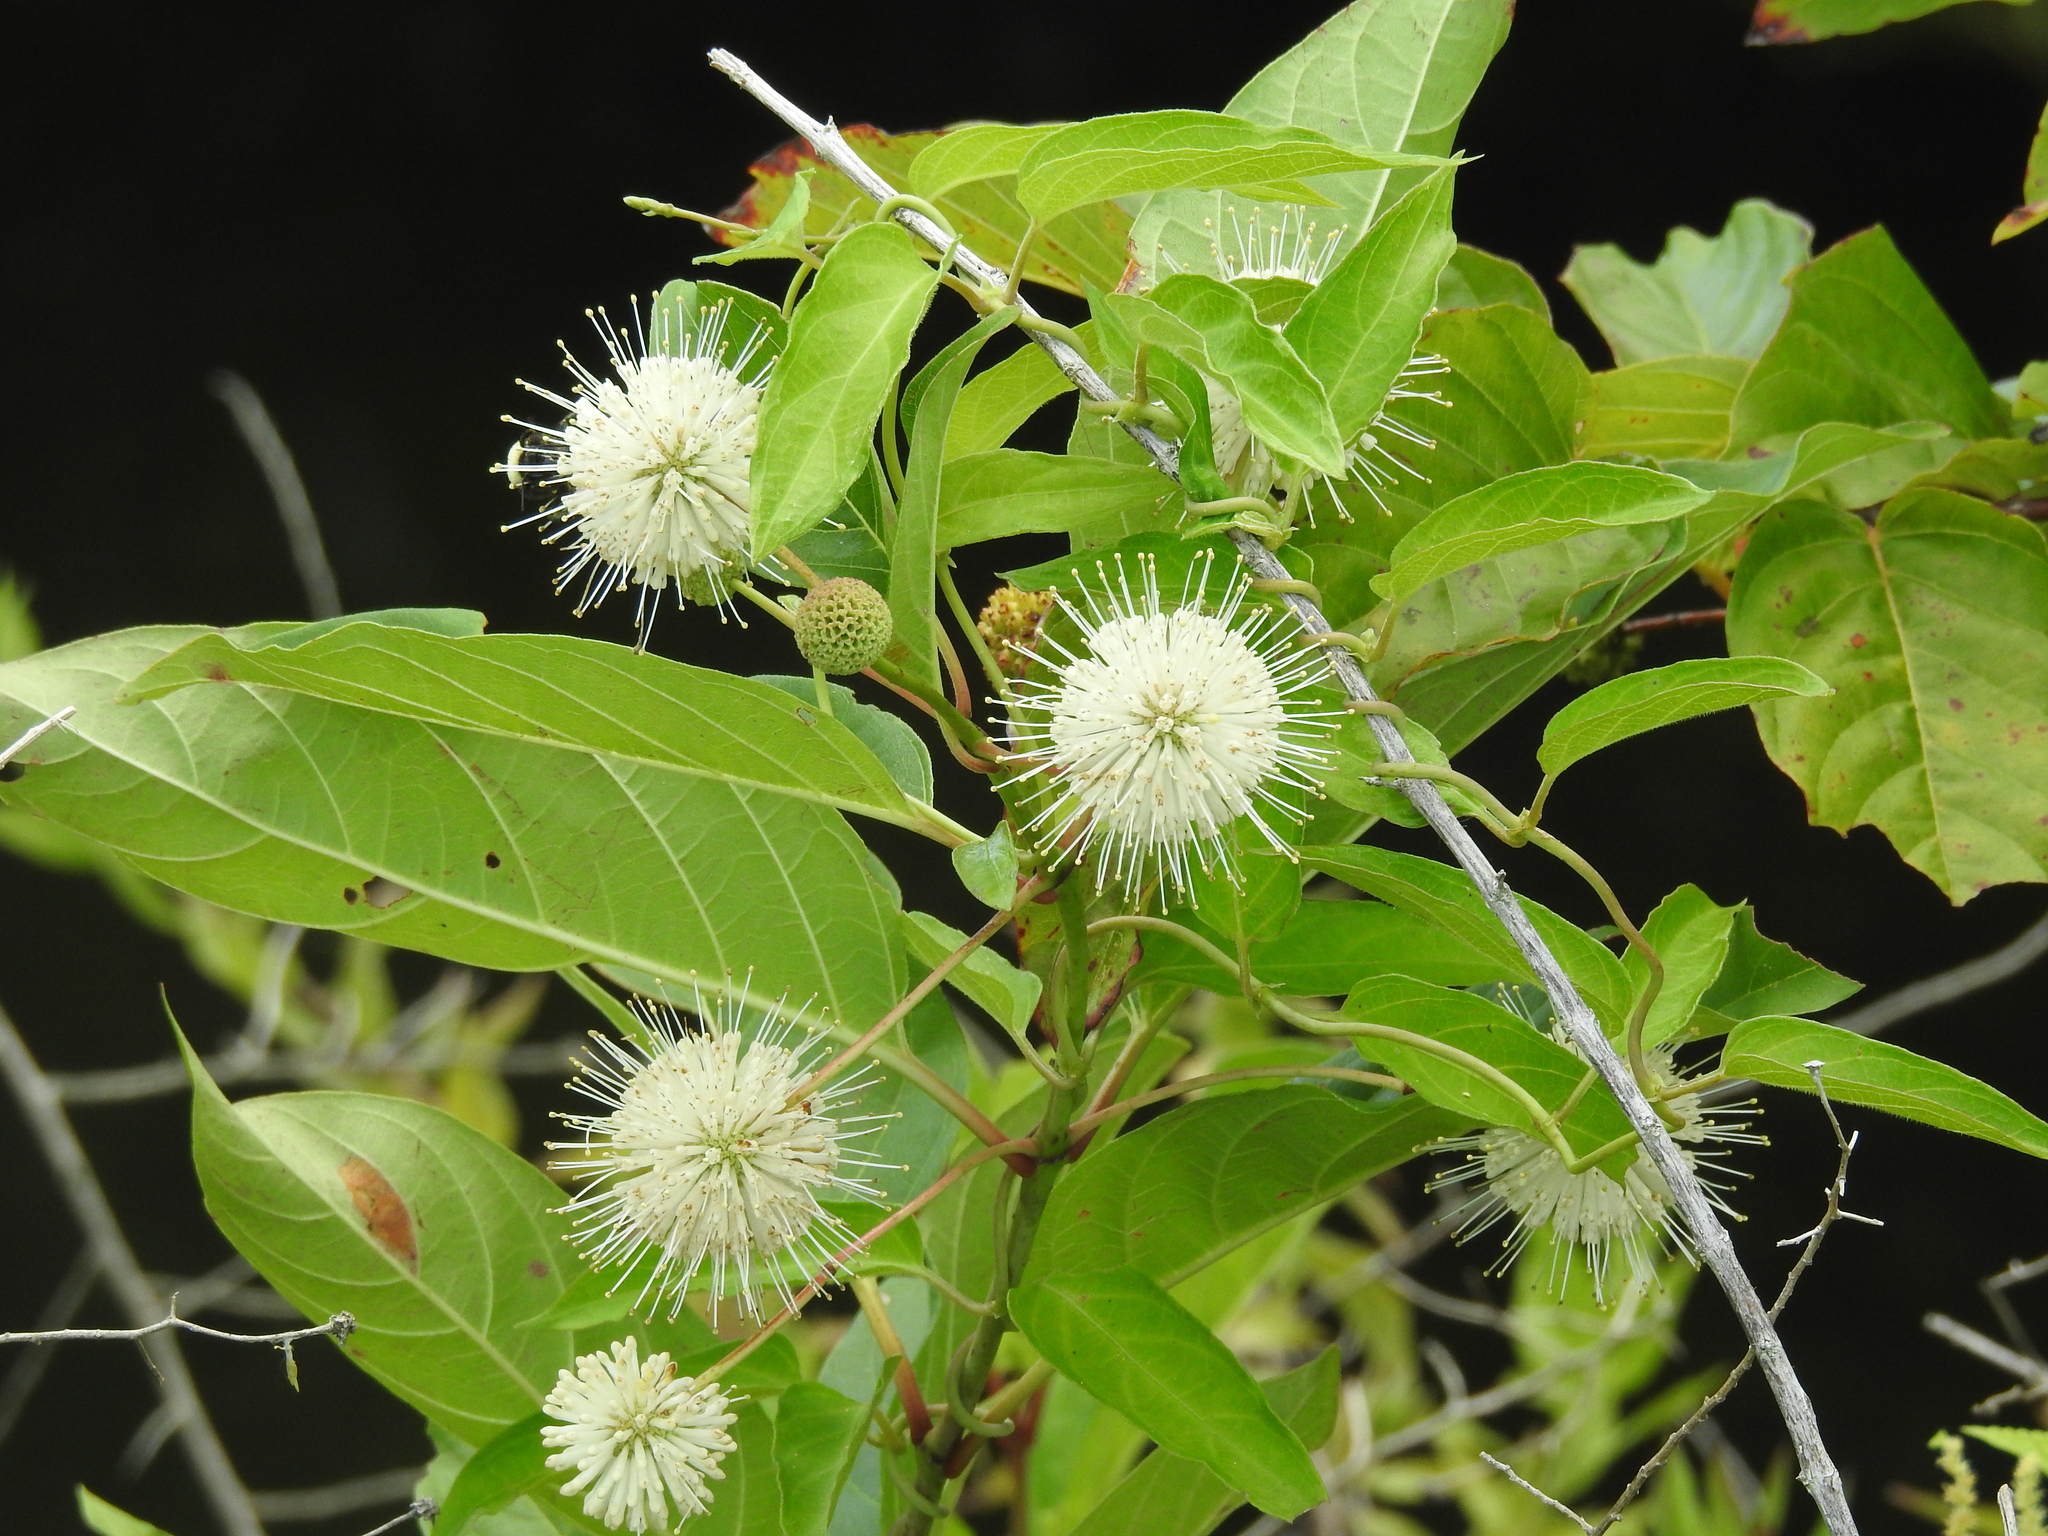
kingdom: Plantae
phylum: Tracheophyta
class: Magnoliopsida
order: Gentianales
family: Rubiaceae
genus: Cephalanthus
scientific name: Cephalanthus occidentalis
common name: Button-willow
